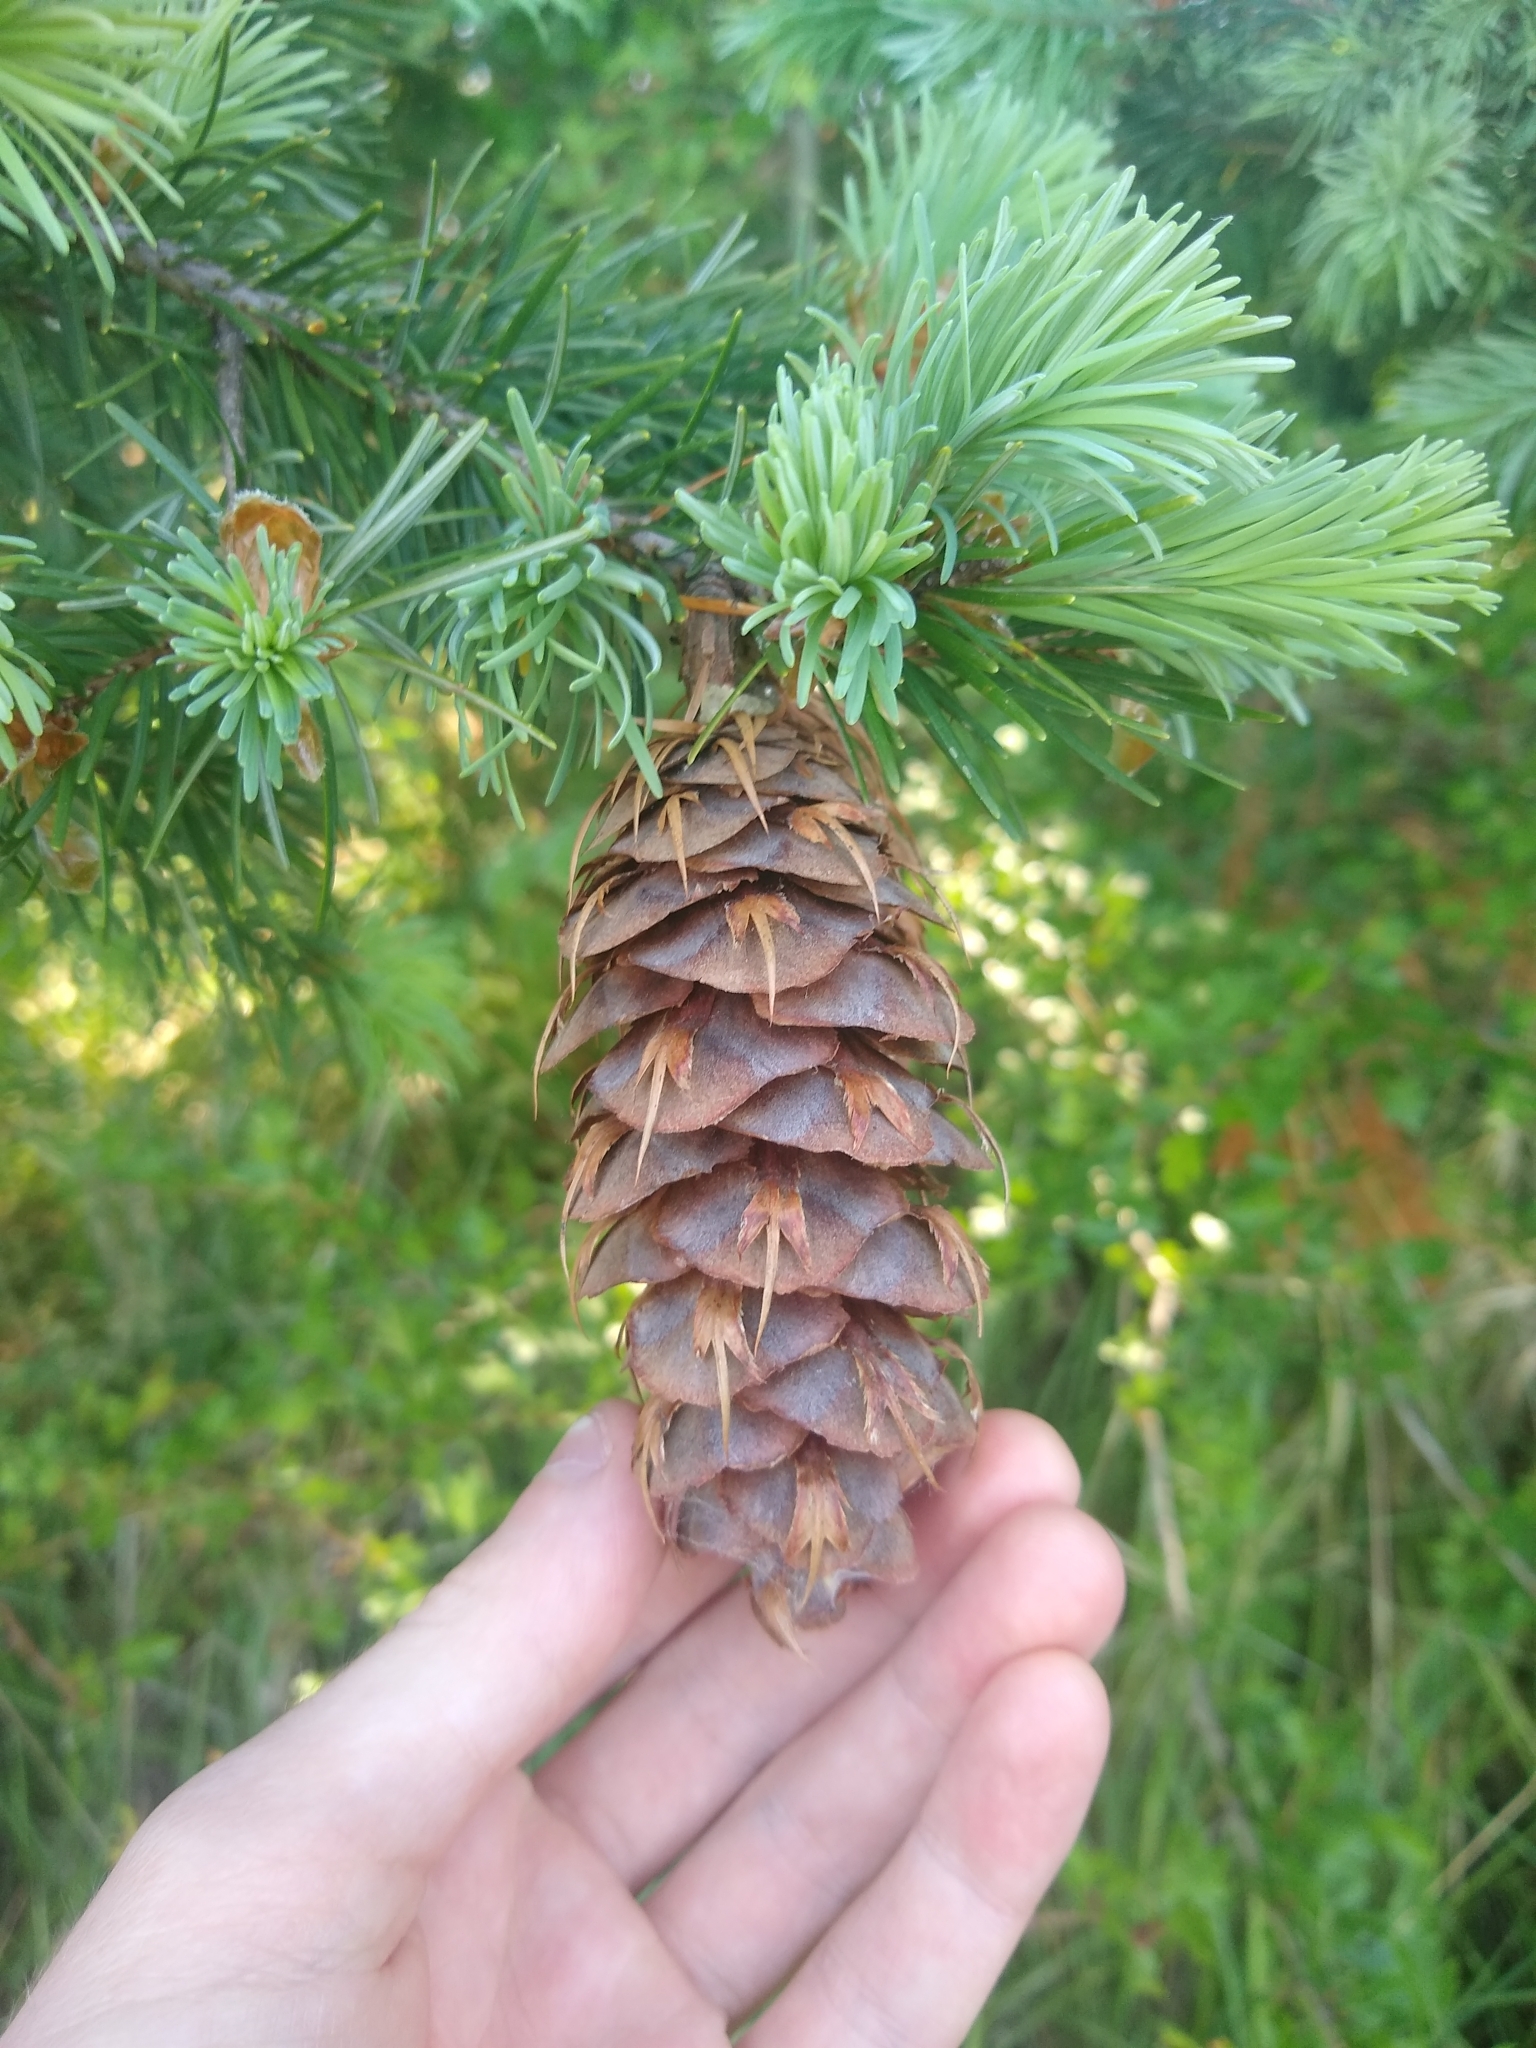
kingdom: Plantae
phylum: Tracheophyta
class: Pinopsida
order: Pinales
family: Pinaceae
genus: Pseudotsuga
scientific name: Pseudotsuga menziesii
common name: Douglas fir
